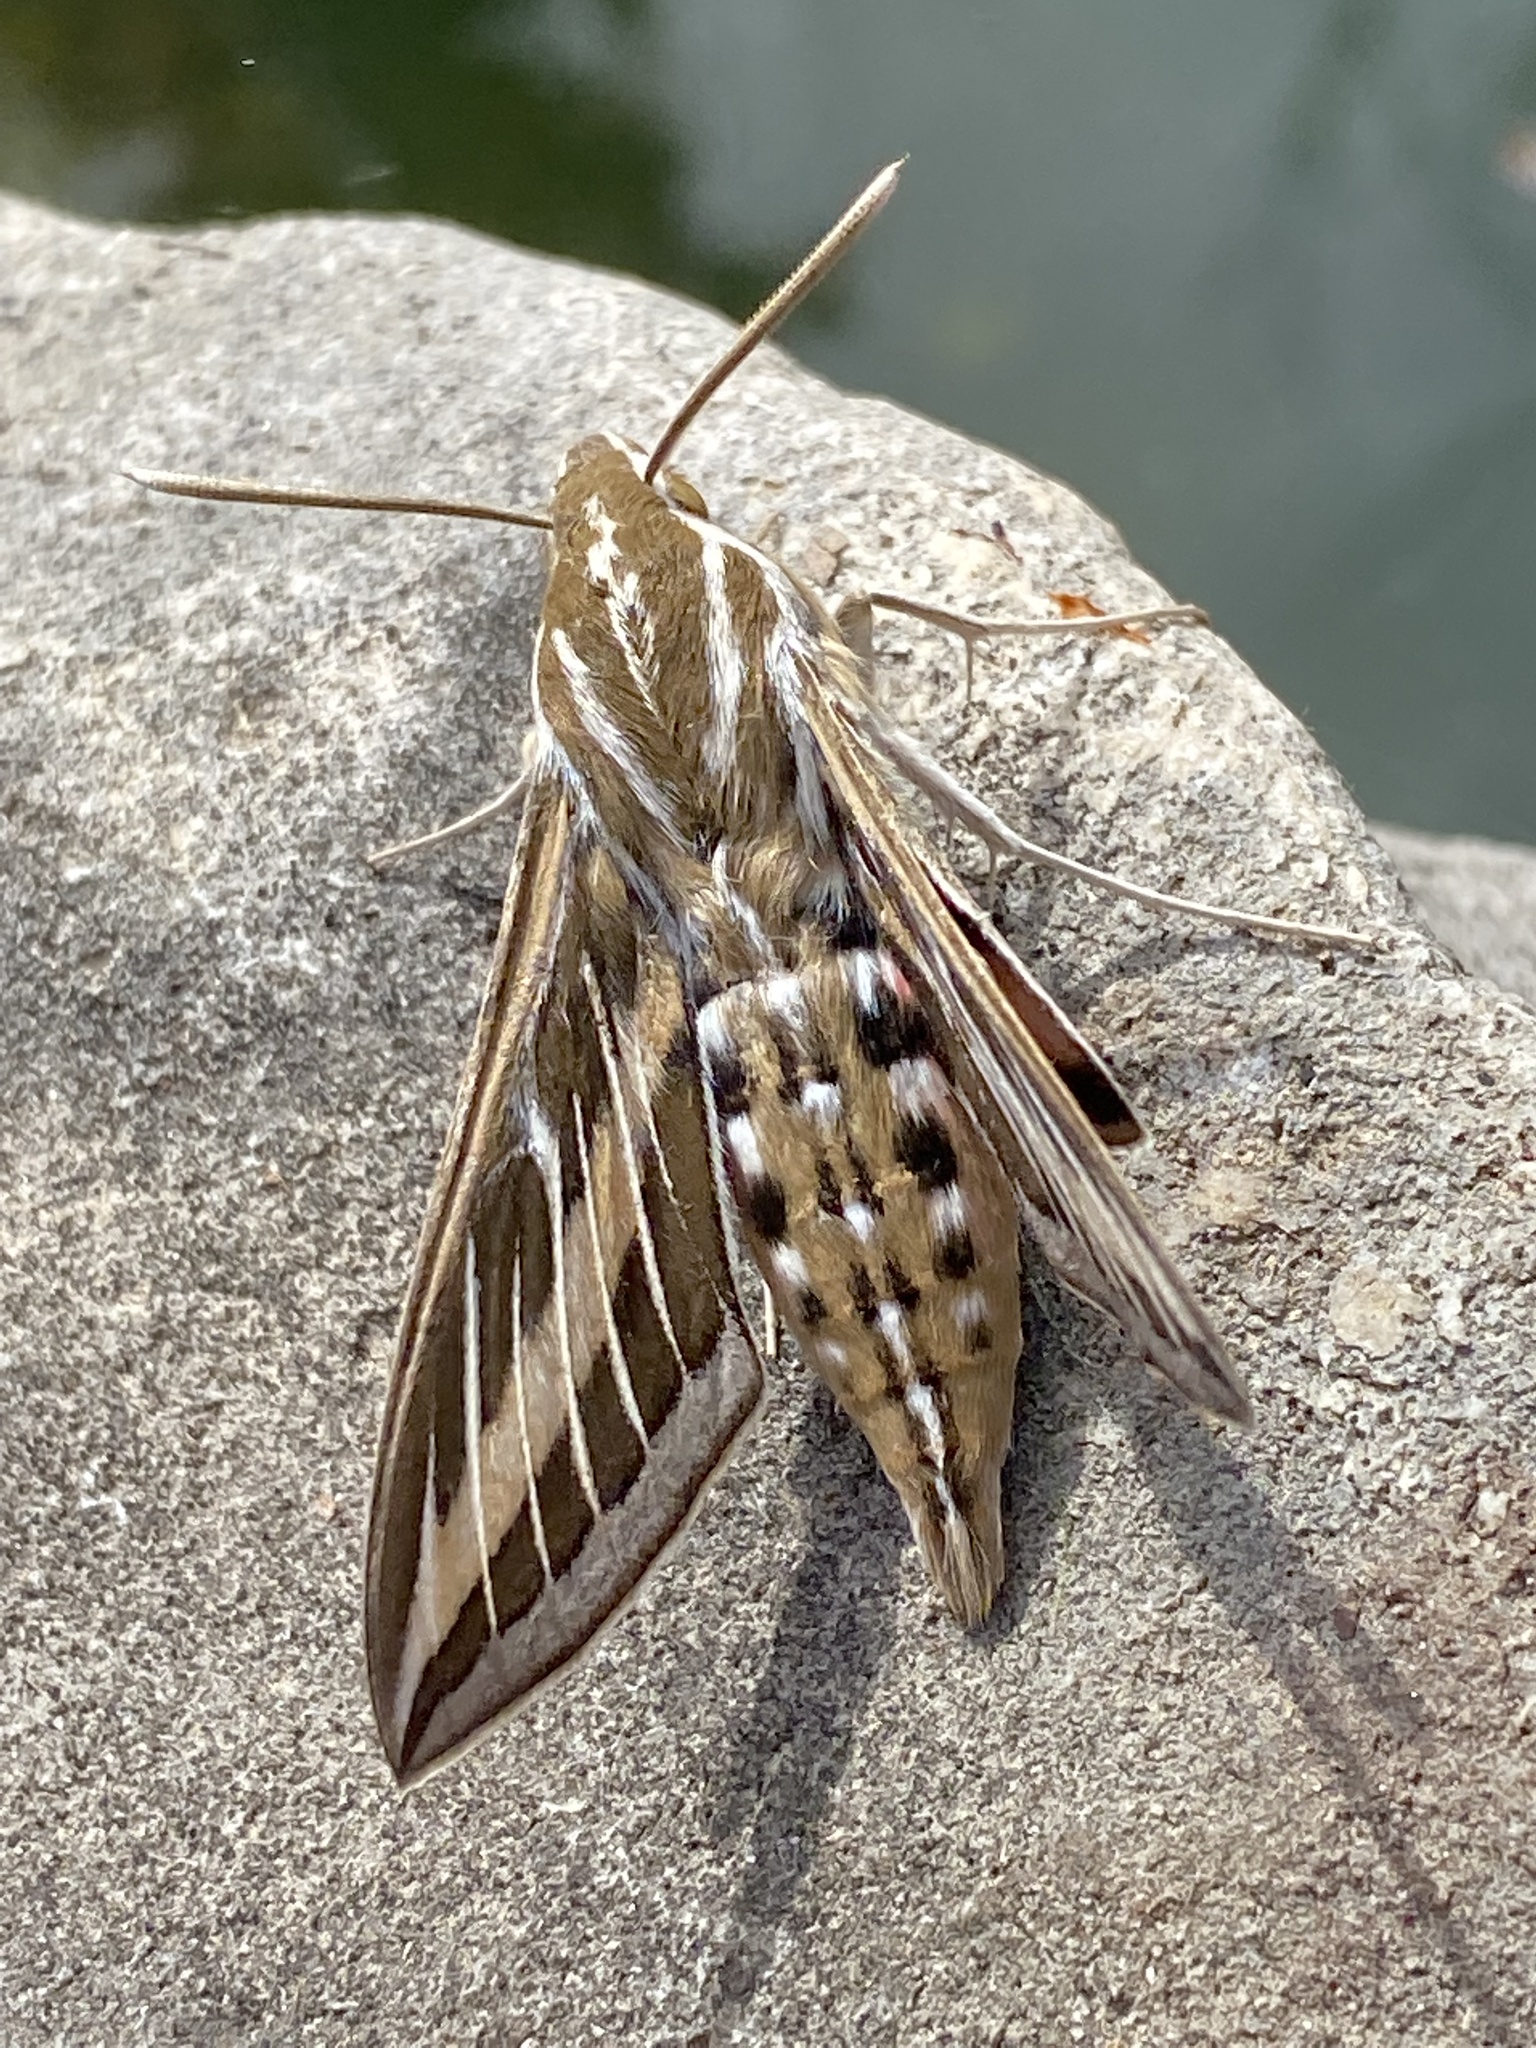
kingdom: Animalia
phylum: Arthropoda
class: Insecta
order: Lepidoptera
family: Sphingidae
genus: Hyles
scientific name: Hyles lineata
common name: White-lined sphinx
